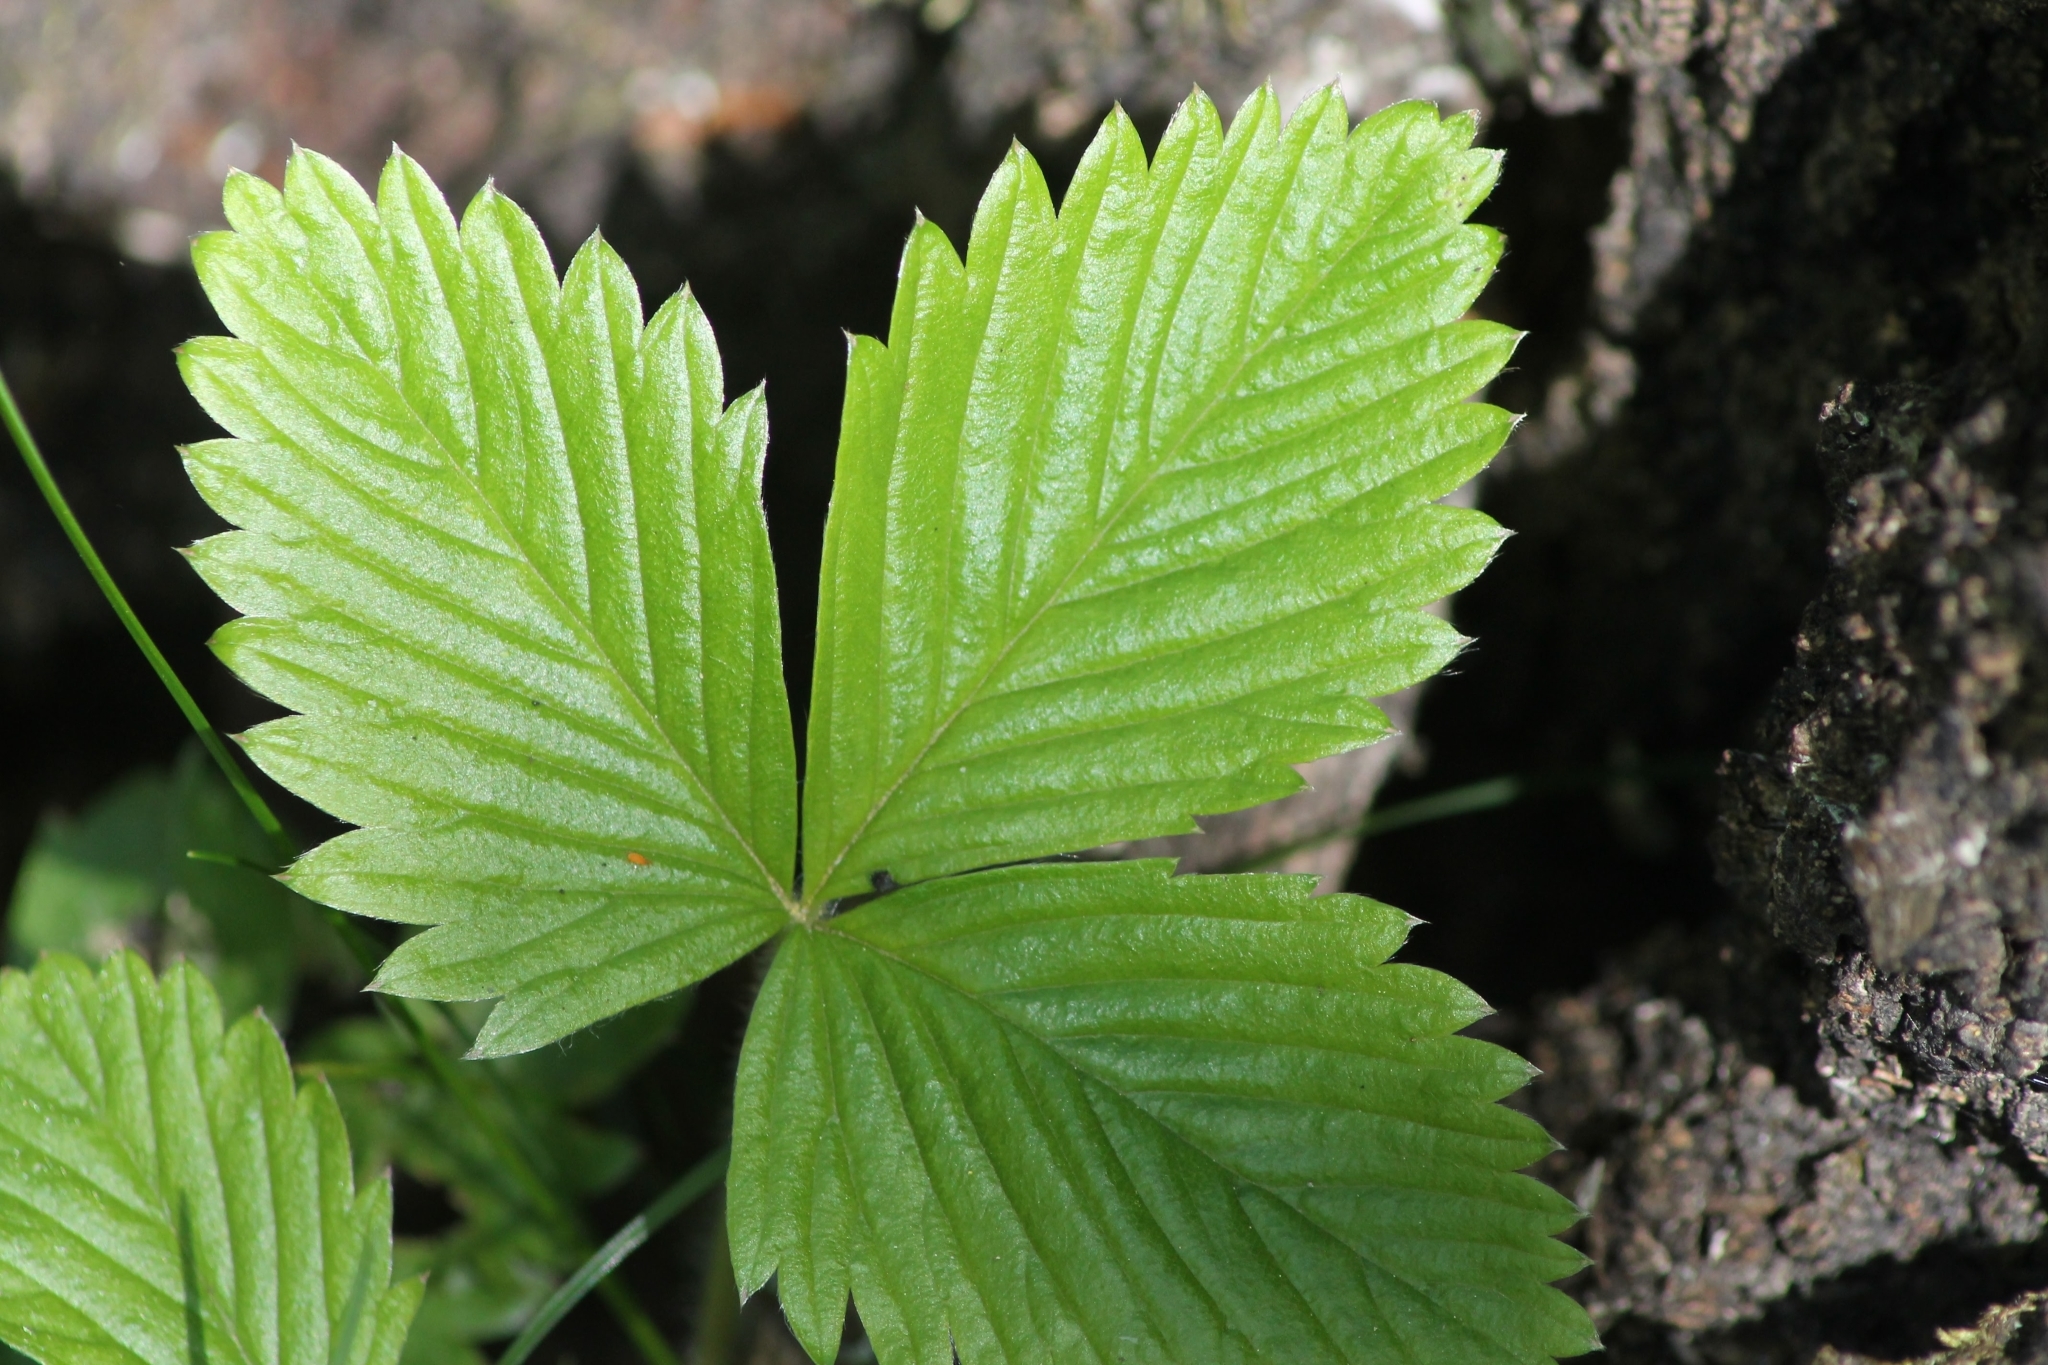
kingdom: Plantae
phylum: Tracheophyta
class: Magnoliopsida
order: Rosales
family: Rosaceae
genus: Fragaria
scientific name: Fragaria vesca
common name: Wild strawberry
